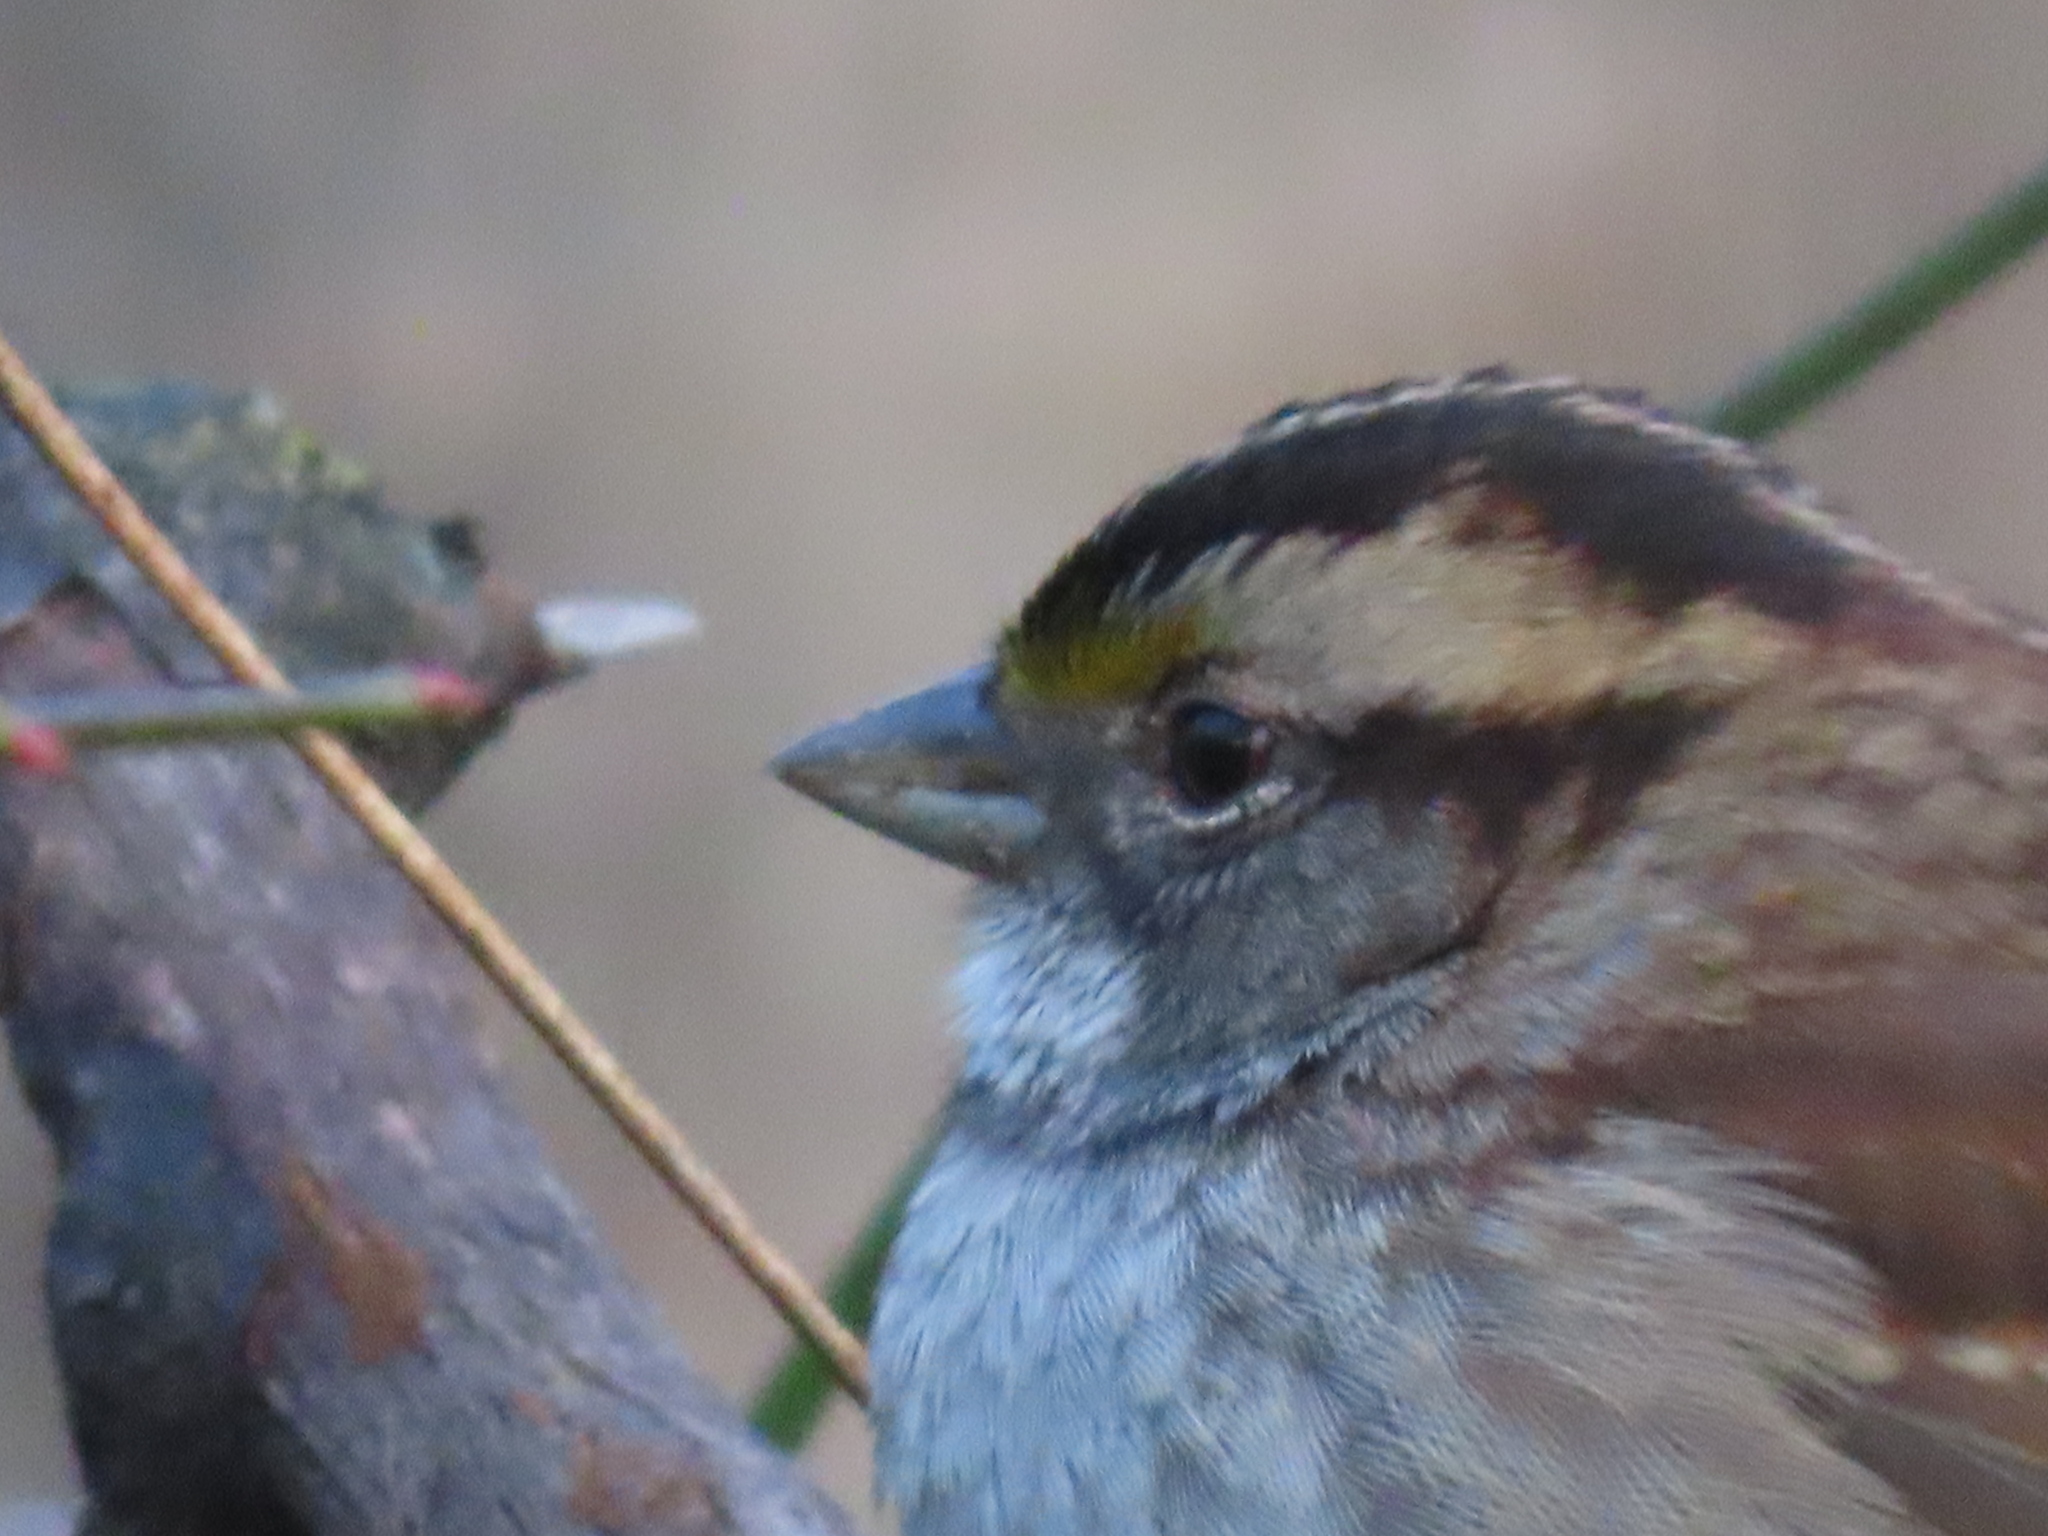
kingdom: Animalia
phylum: Chordata
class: Aves
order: Passeriformes
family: Passerellidae
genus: Zonotrichia
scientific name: Zonotrichia albicollis
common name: White-throated sparrow
